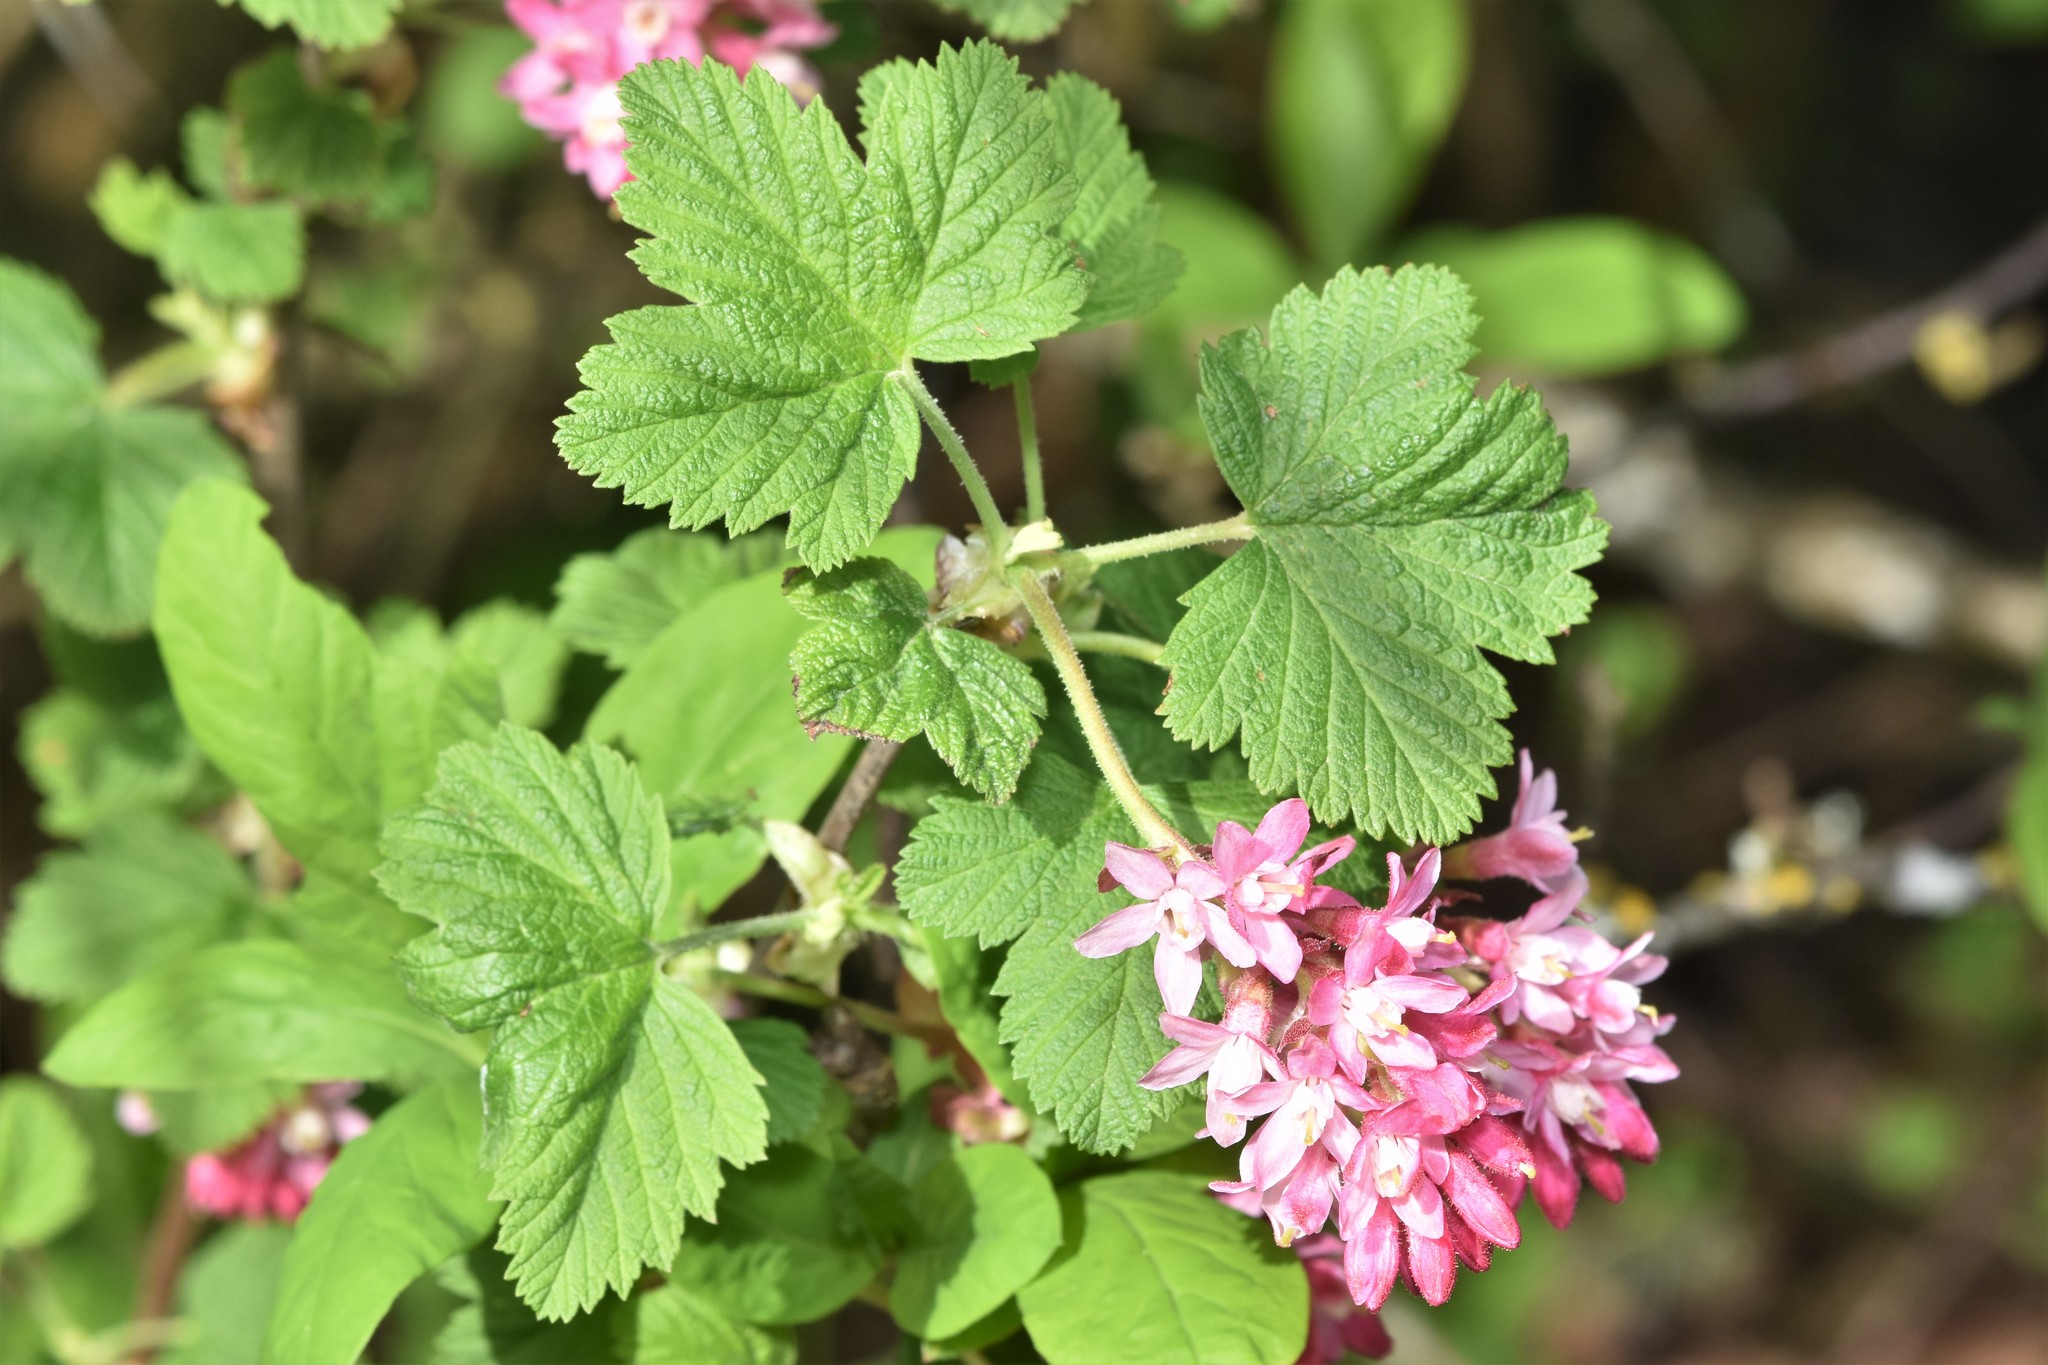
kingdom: Plantae
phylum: Tracheophyta
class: Magnoliopsida
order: Saxifragales
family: Grossulariaceae
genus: Ribes
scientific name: Ribes sanguineum
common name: Flowering currant
